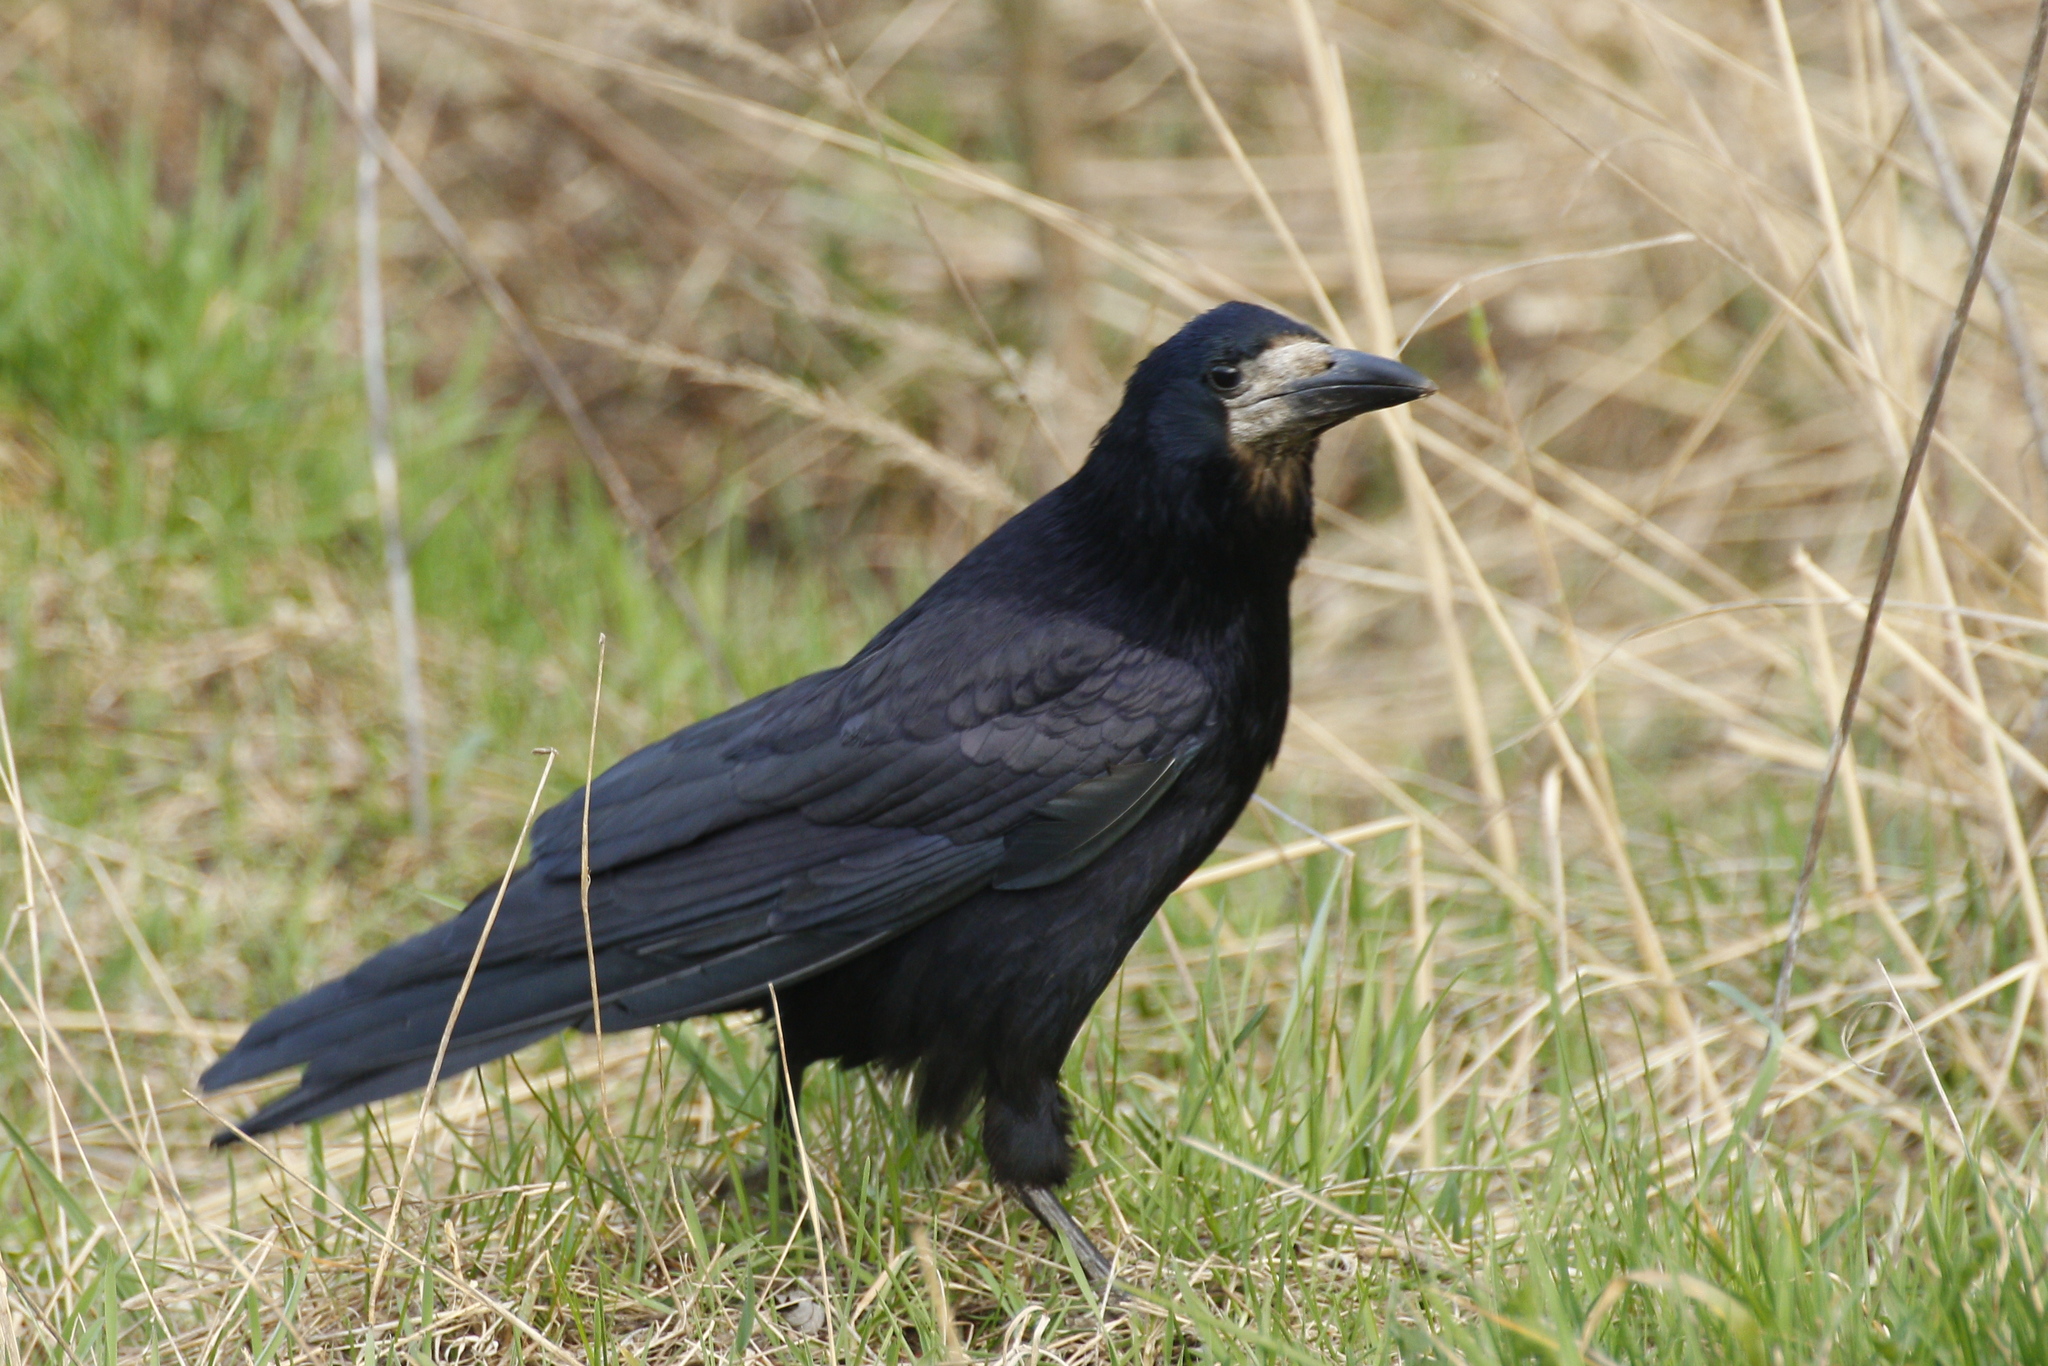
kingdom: Animalia
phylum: Chordata
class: Aves
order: Passeriformes
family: Corvidae
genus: Corvus
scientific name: Corvus frugilegus
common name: Rook
